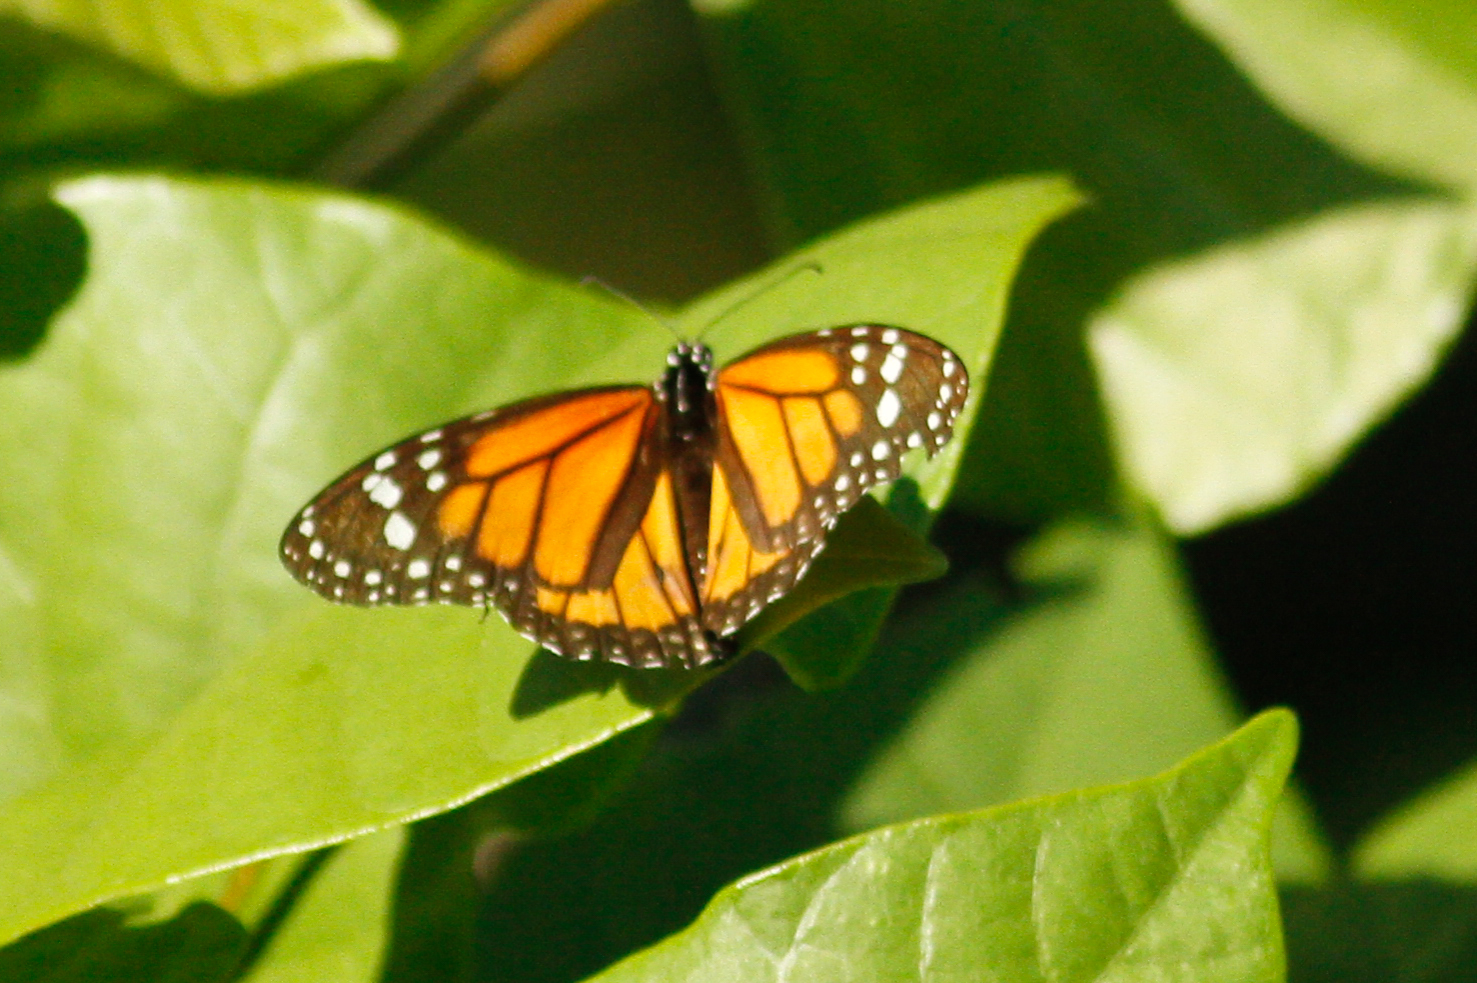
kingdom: Animalia
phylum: Arthropoda
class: Insecta
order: Lepidoptera
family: Nymphalidae
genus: Danaus
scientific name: Danaus plexippus
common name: Monarch
